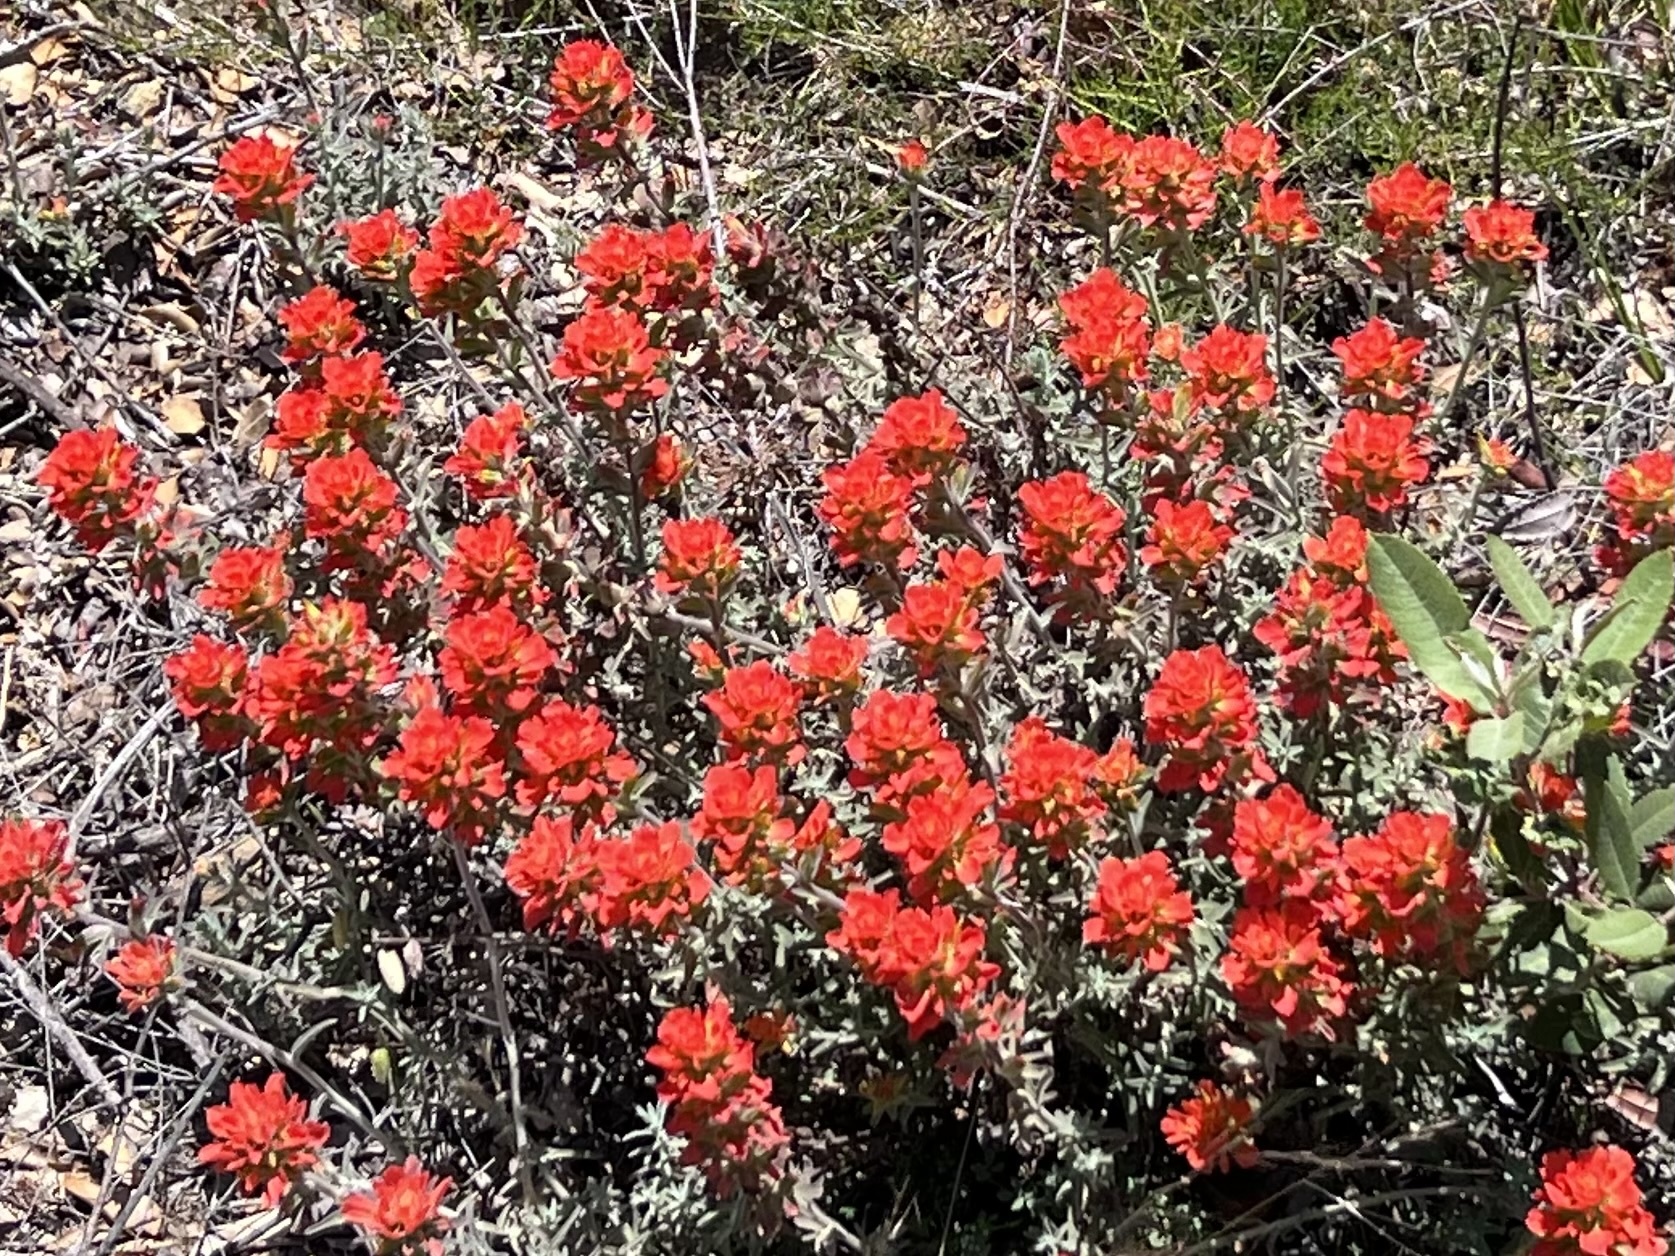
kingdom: Plantae
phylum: Tracheophyta
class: Magnoliopsida
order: Lamiales
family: Orobanchaceae
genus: Castilleja
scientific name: Castilleja foliolosa
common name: Woolly indian paintbrush
